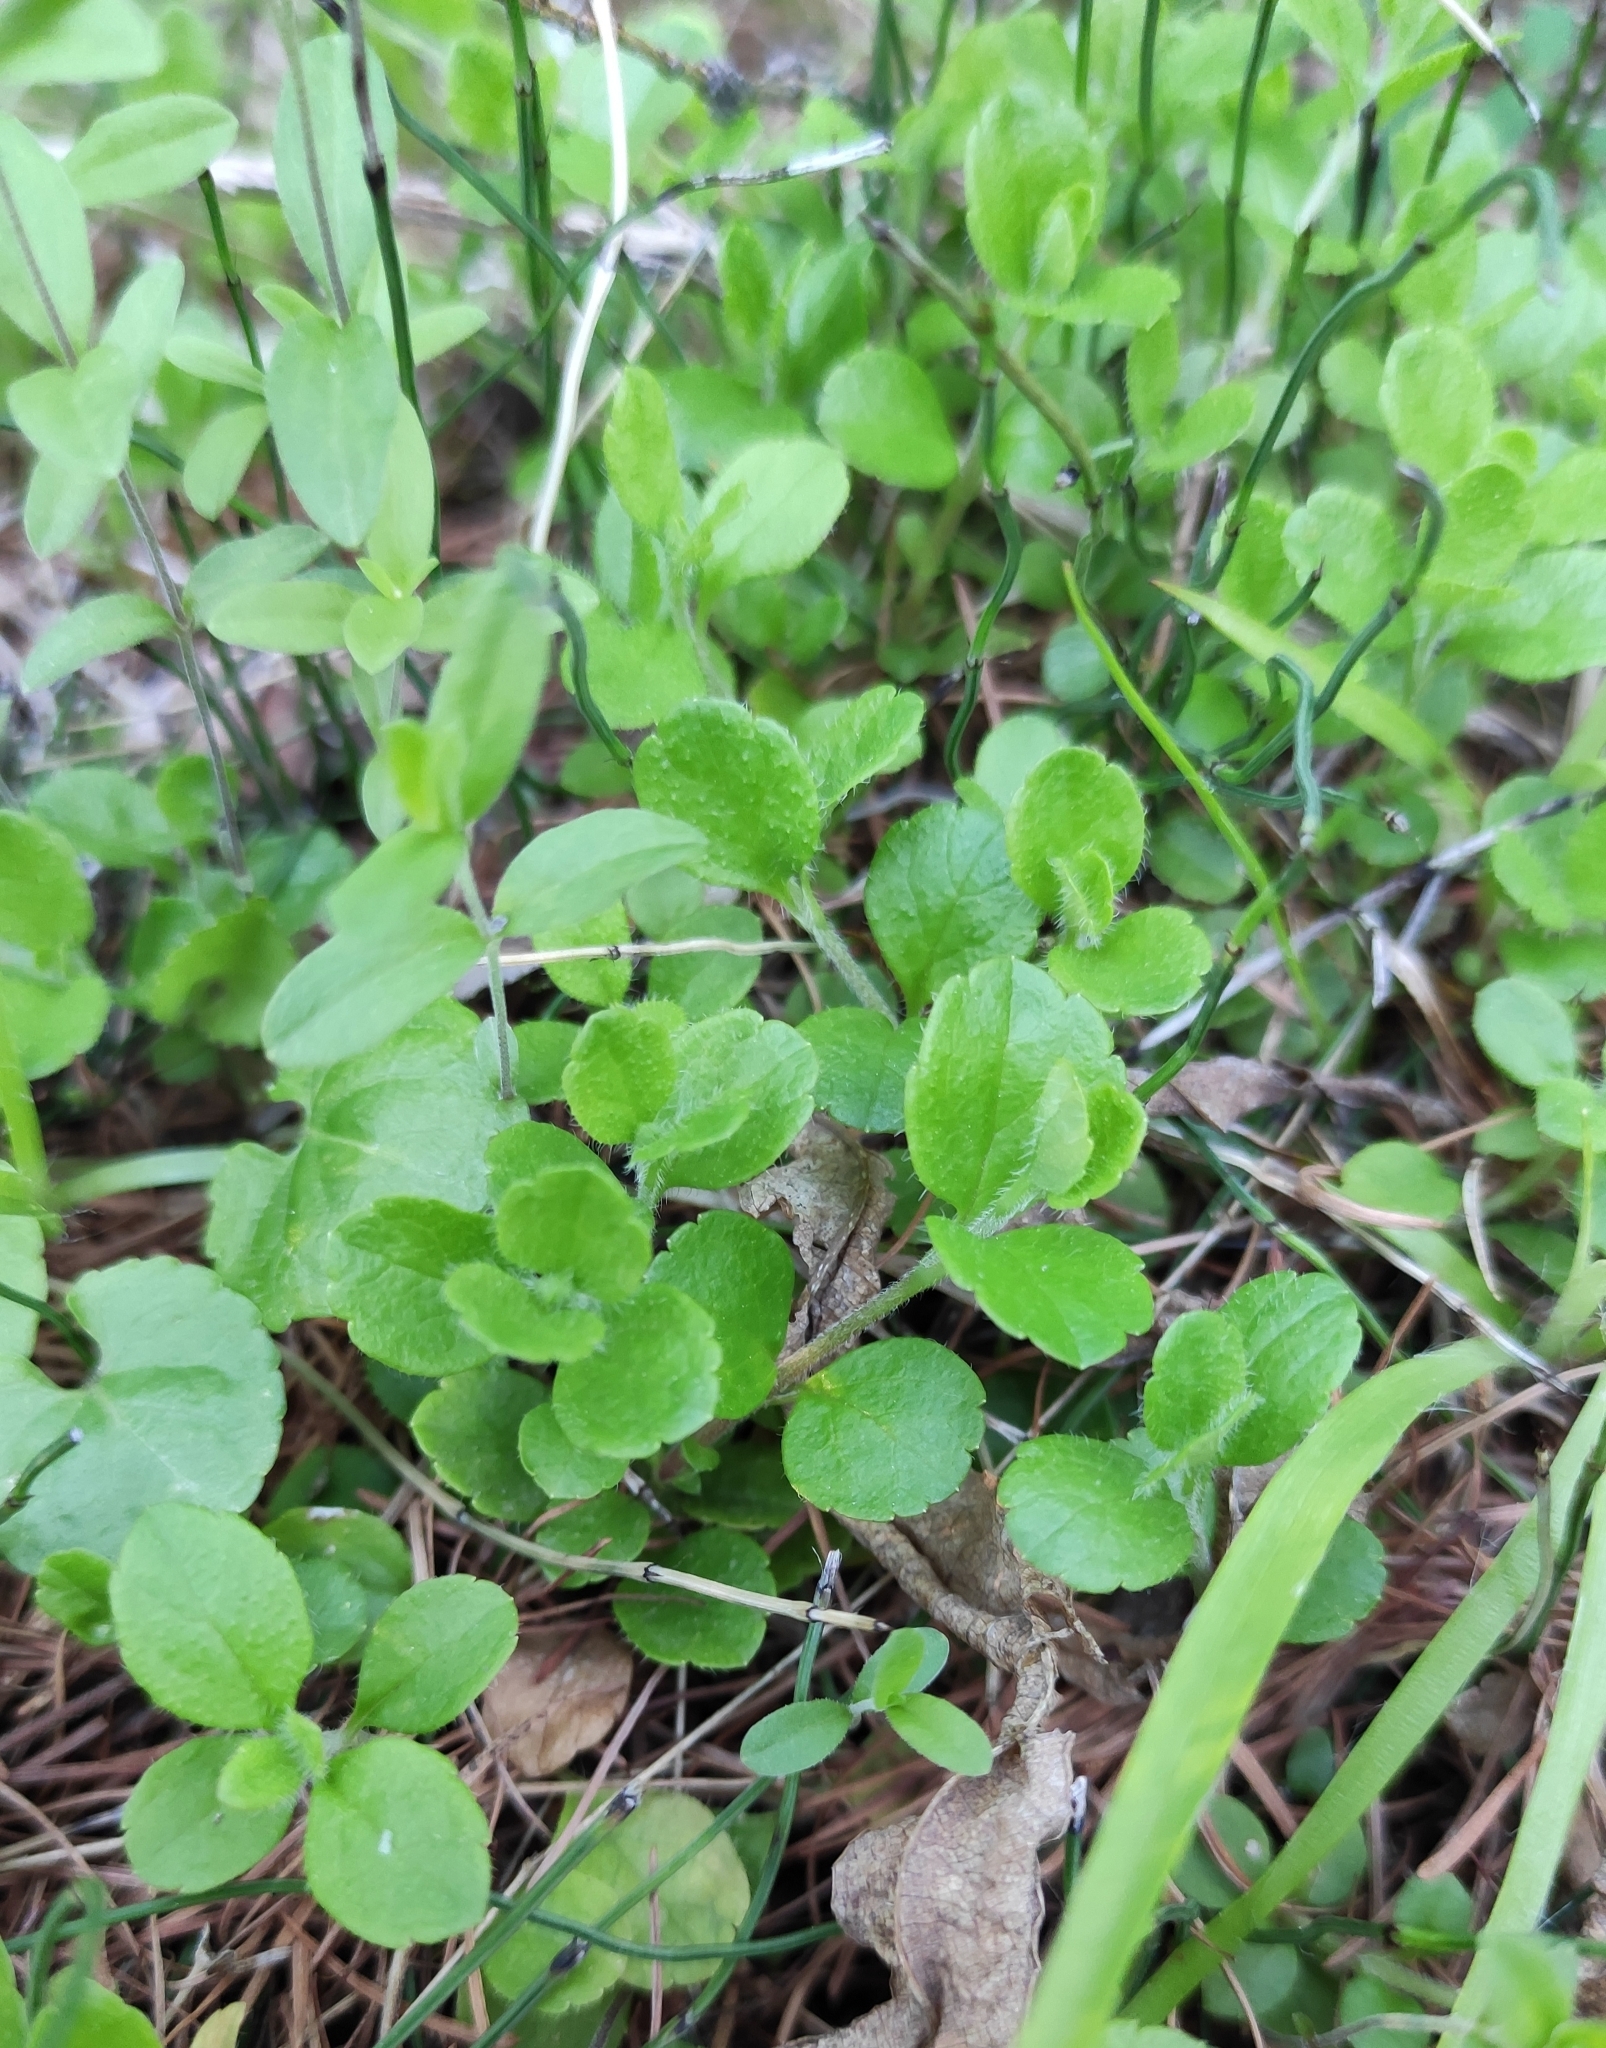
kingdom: Plantae
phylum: Tracheophyta
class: Magnoliopsida
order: Dipsacales
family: Caprifoliaceae
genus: Linnaea
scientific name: Linnaea borealis
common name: Twinflower
